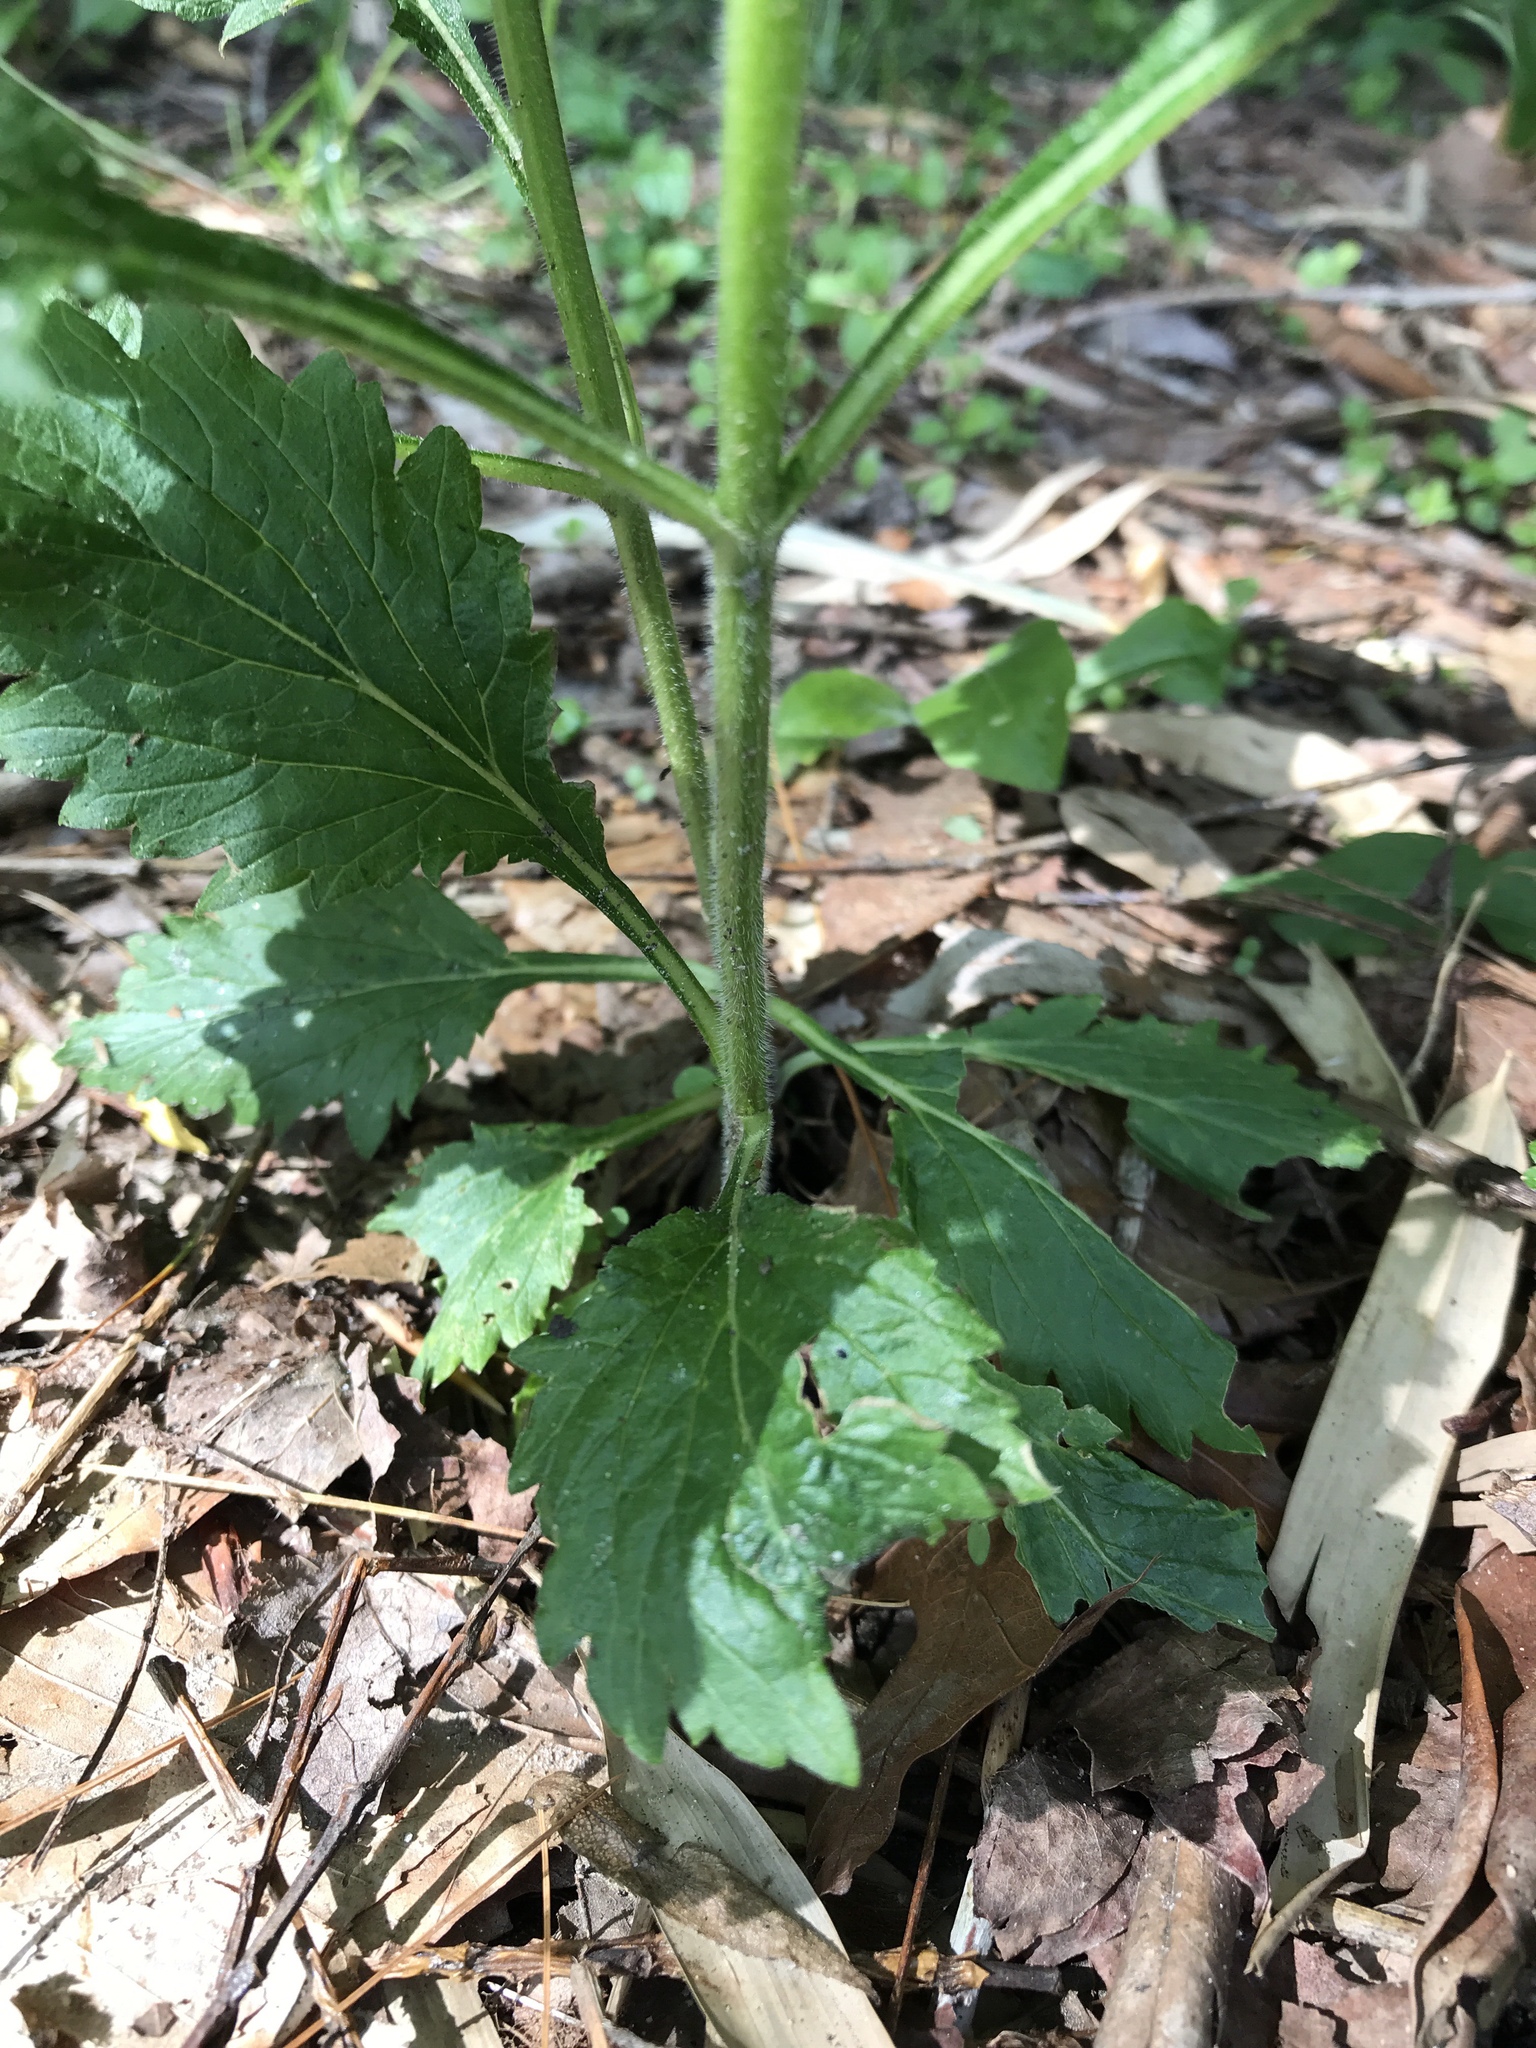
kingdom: Plantae
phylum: Tracheophyta
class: Magnoliopsida
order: Lamiales
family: Verbenaceae
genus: Verbena
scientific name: Verbena urticifolia
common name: Nettle-leaved vervain
